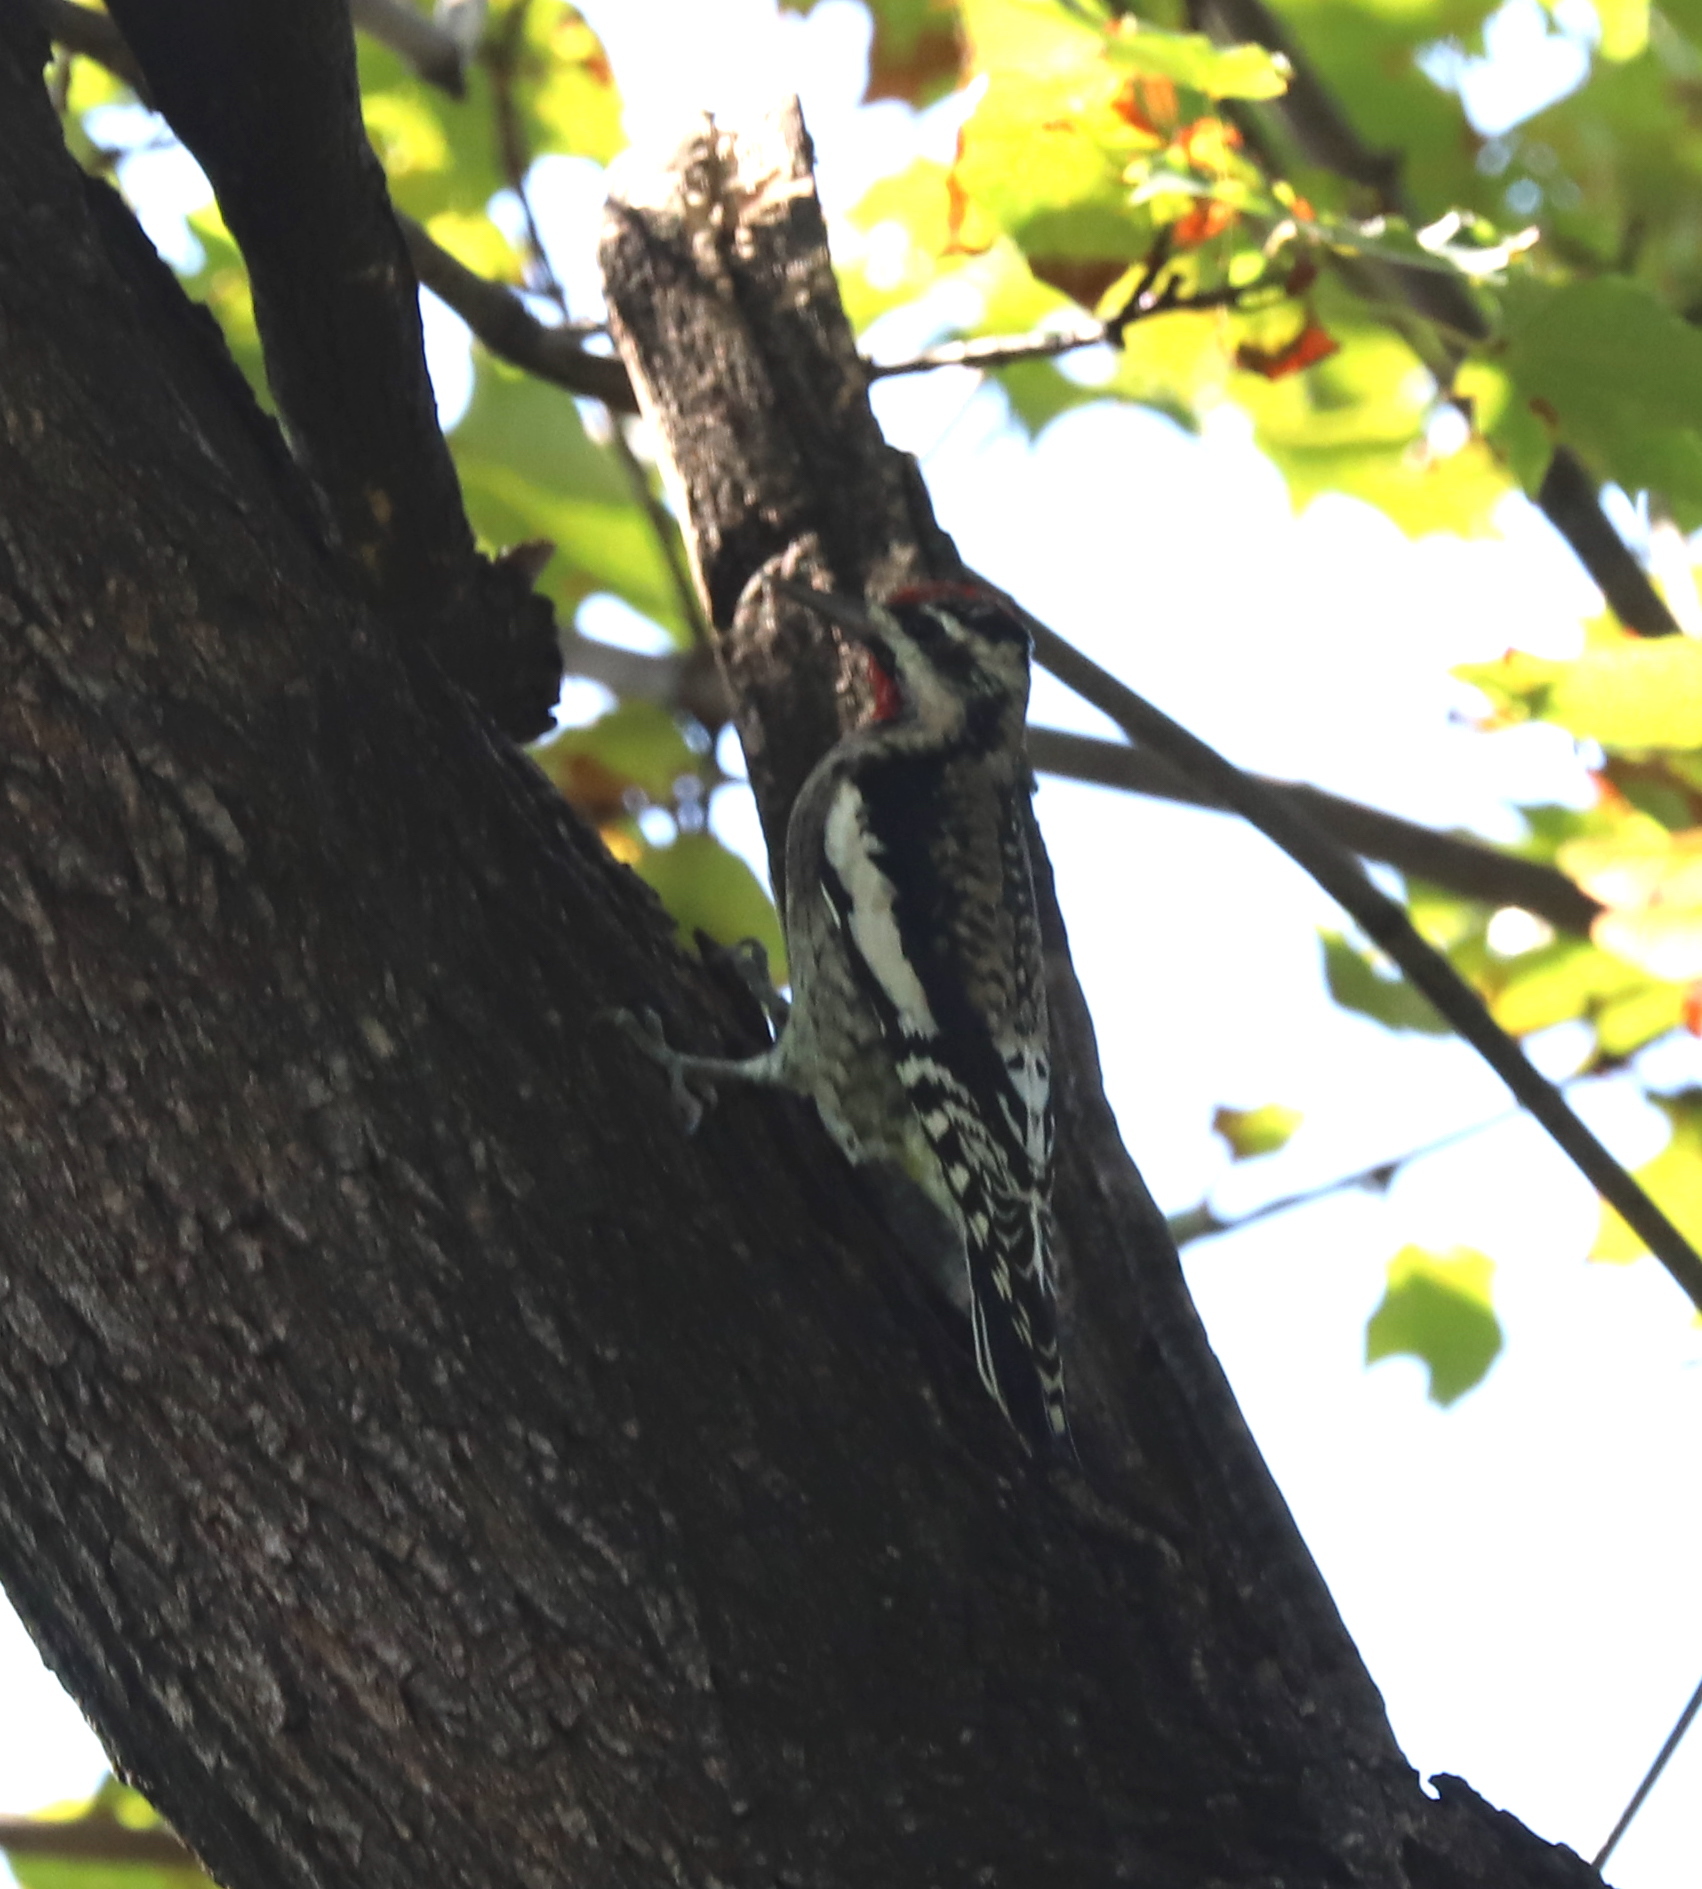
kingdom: Animalia
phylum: Chordata
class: Aves
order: Piciformes
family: Picidae
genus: Sphyrapicus
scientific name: Sphyrapicus varius
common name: Yellow-bellied sapsucker
